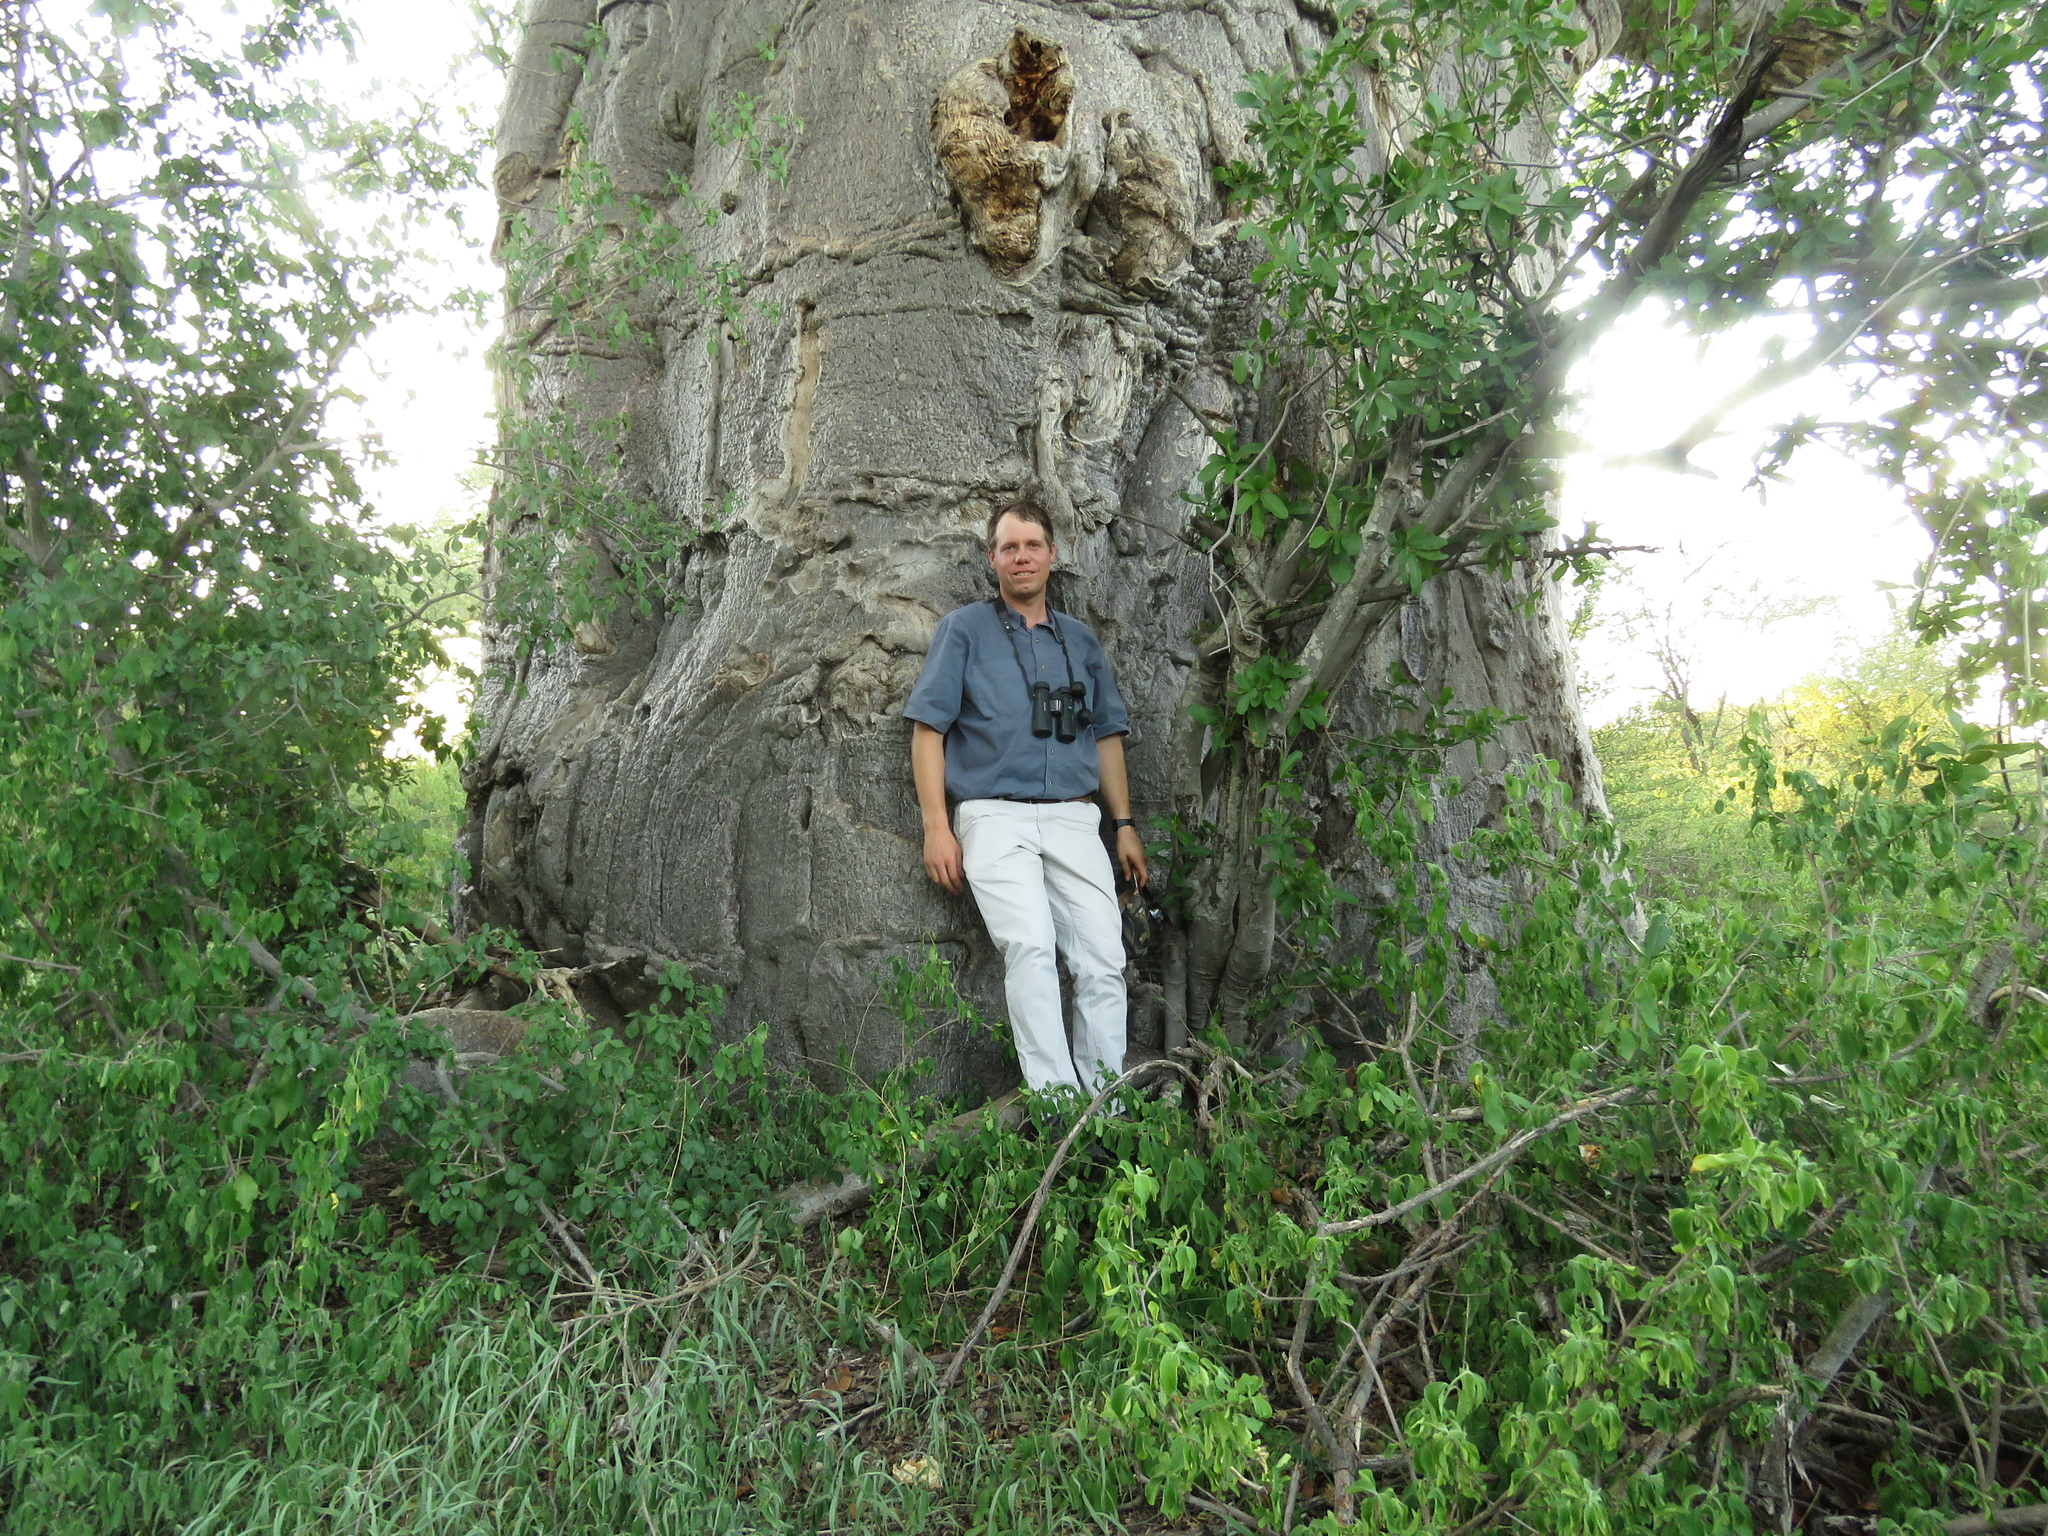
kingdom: Plantae
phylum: Tracheophyta
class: Magnoliopsida
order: Malvales
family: Malvaceae
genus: Adansonia
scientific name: Adansonia digitata
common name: Dead-rat-tree
